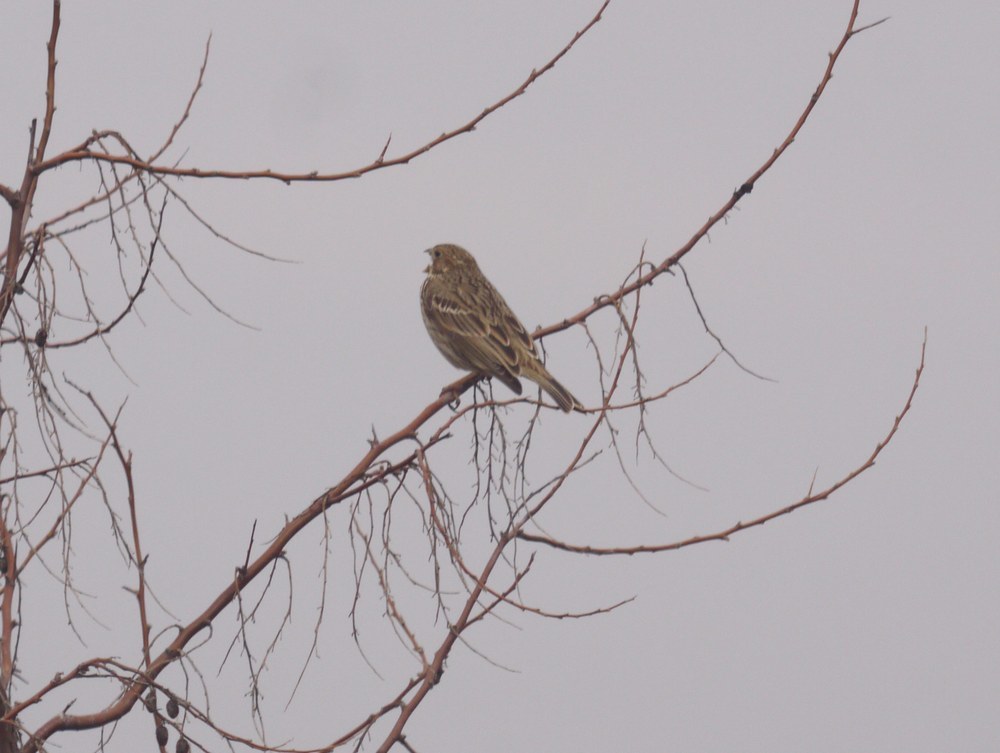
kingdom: Animalia
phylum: Chordata
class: Aves
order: Passeriformes
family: Emberizidae
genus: Emberiza
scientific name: Emberiza calandra
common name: Corn bunting
